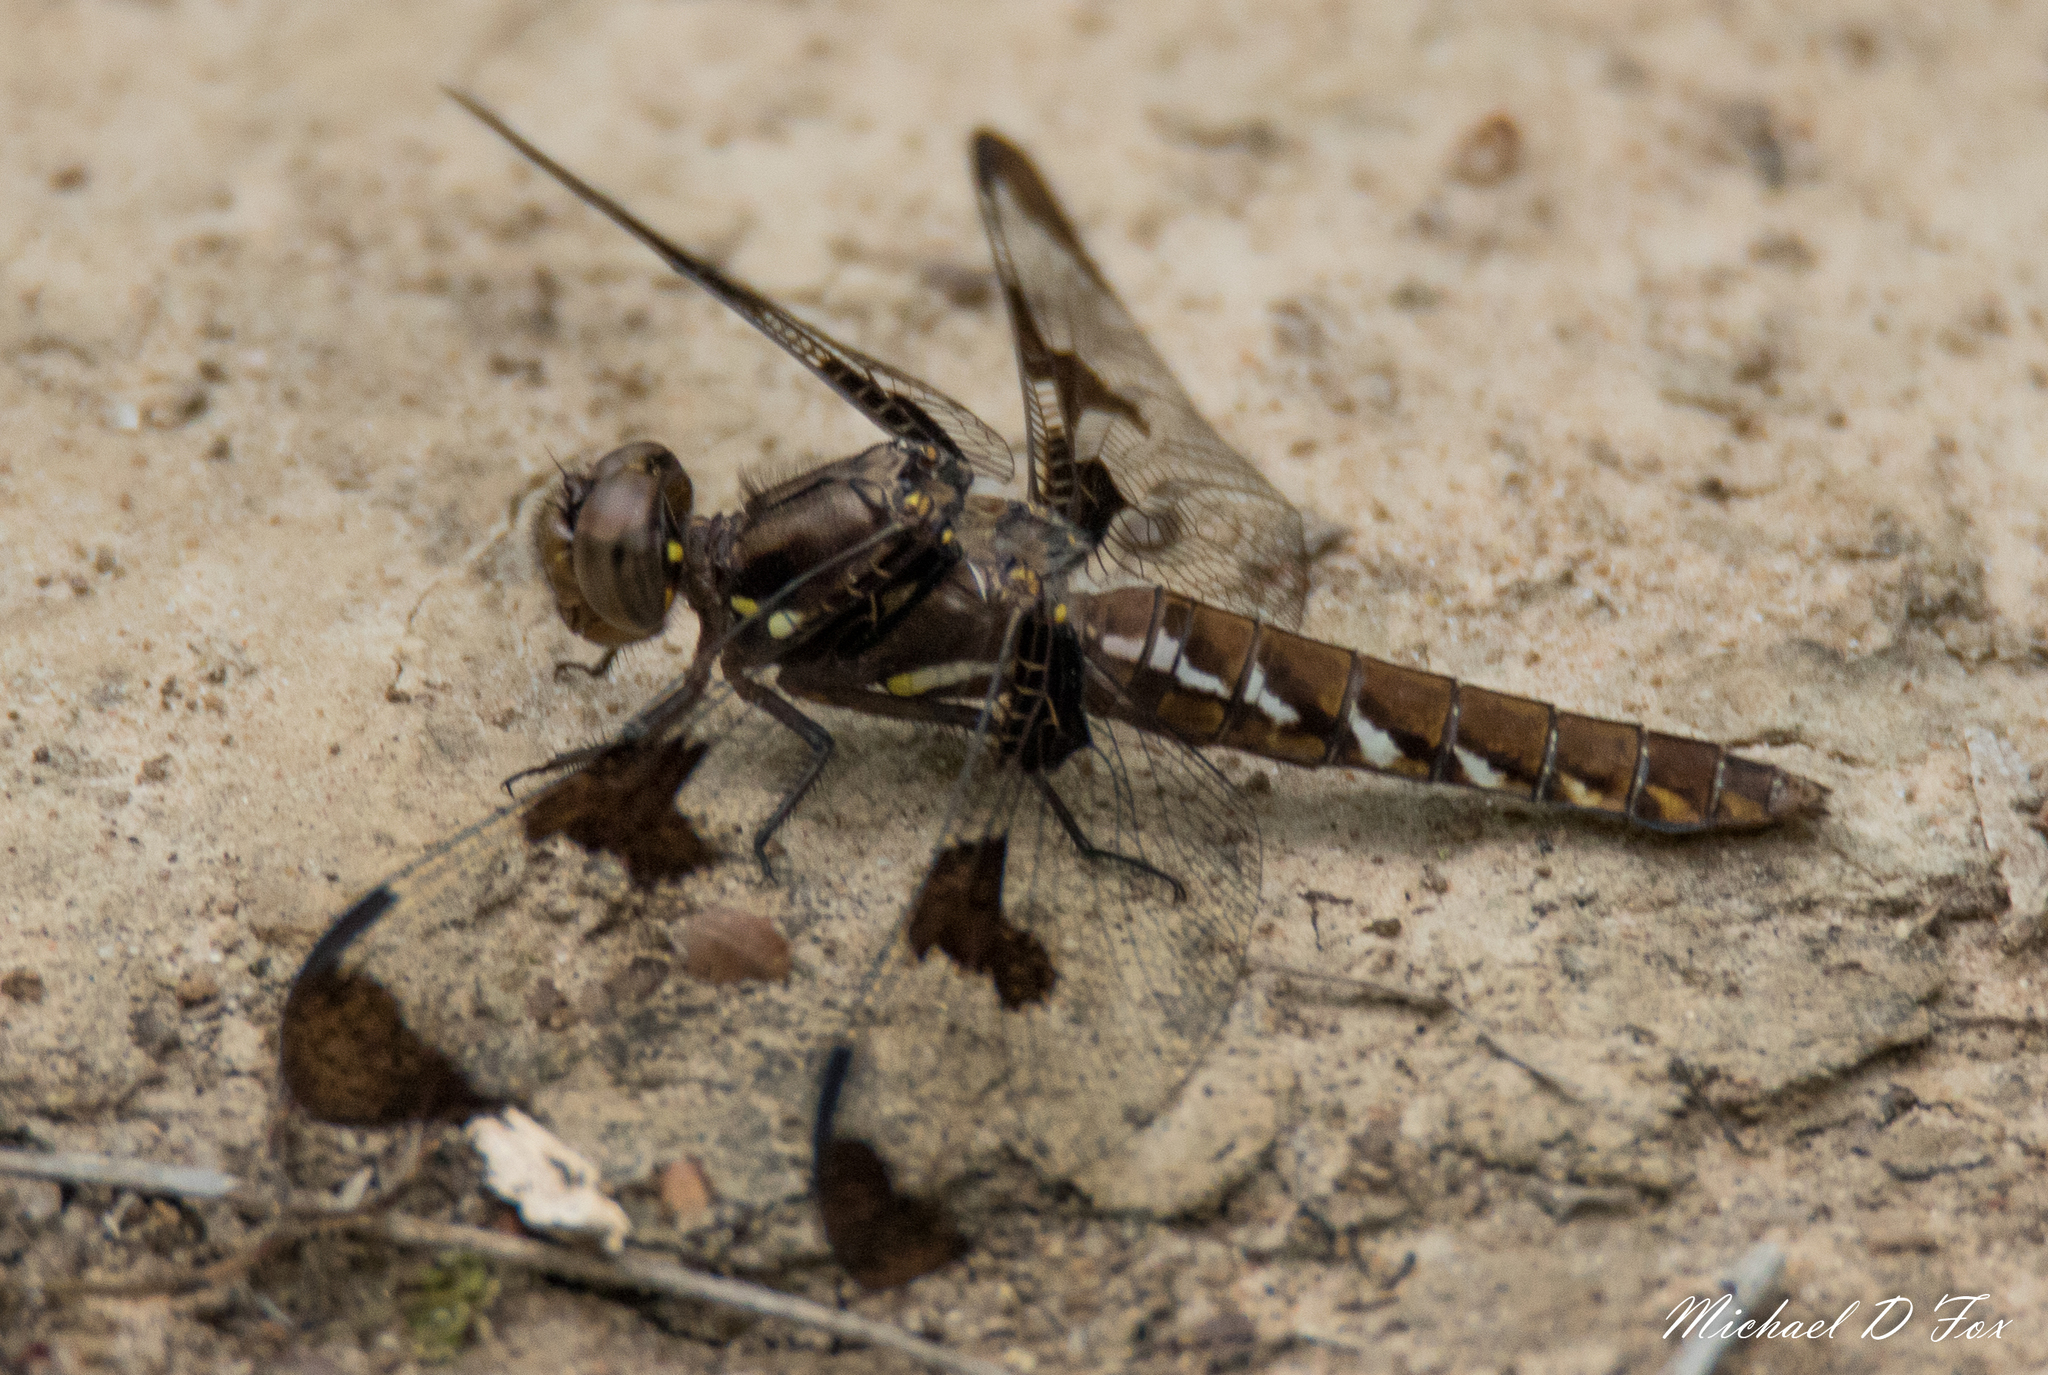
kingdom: Animalia
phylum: Arthropoda
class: Insecta
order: Odonata
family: Libellulidae
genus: Plathemis
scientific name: Plathemis lydia
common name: Common whitetail
